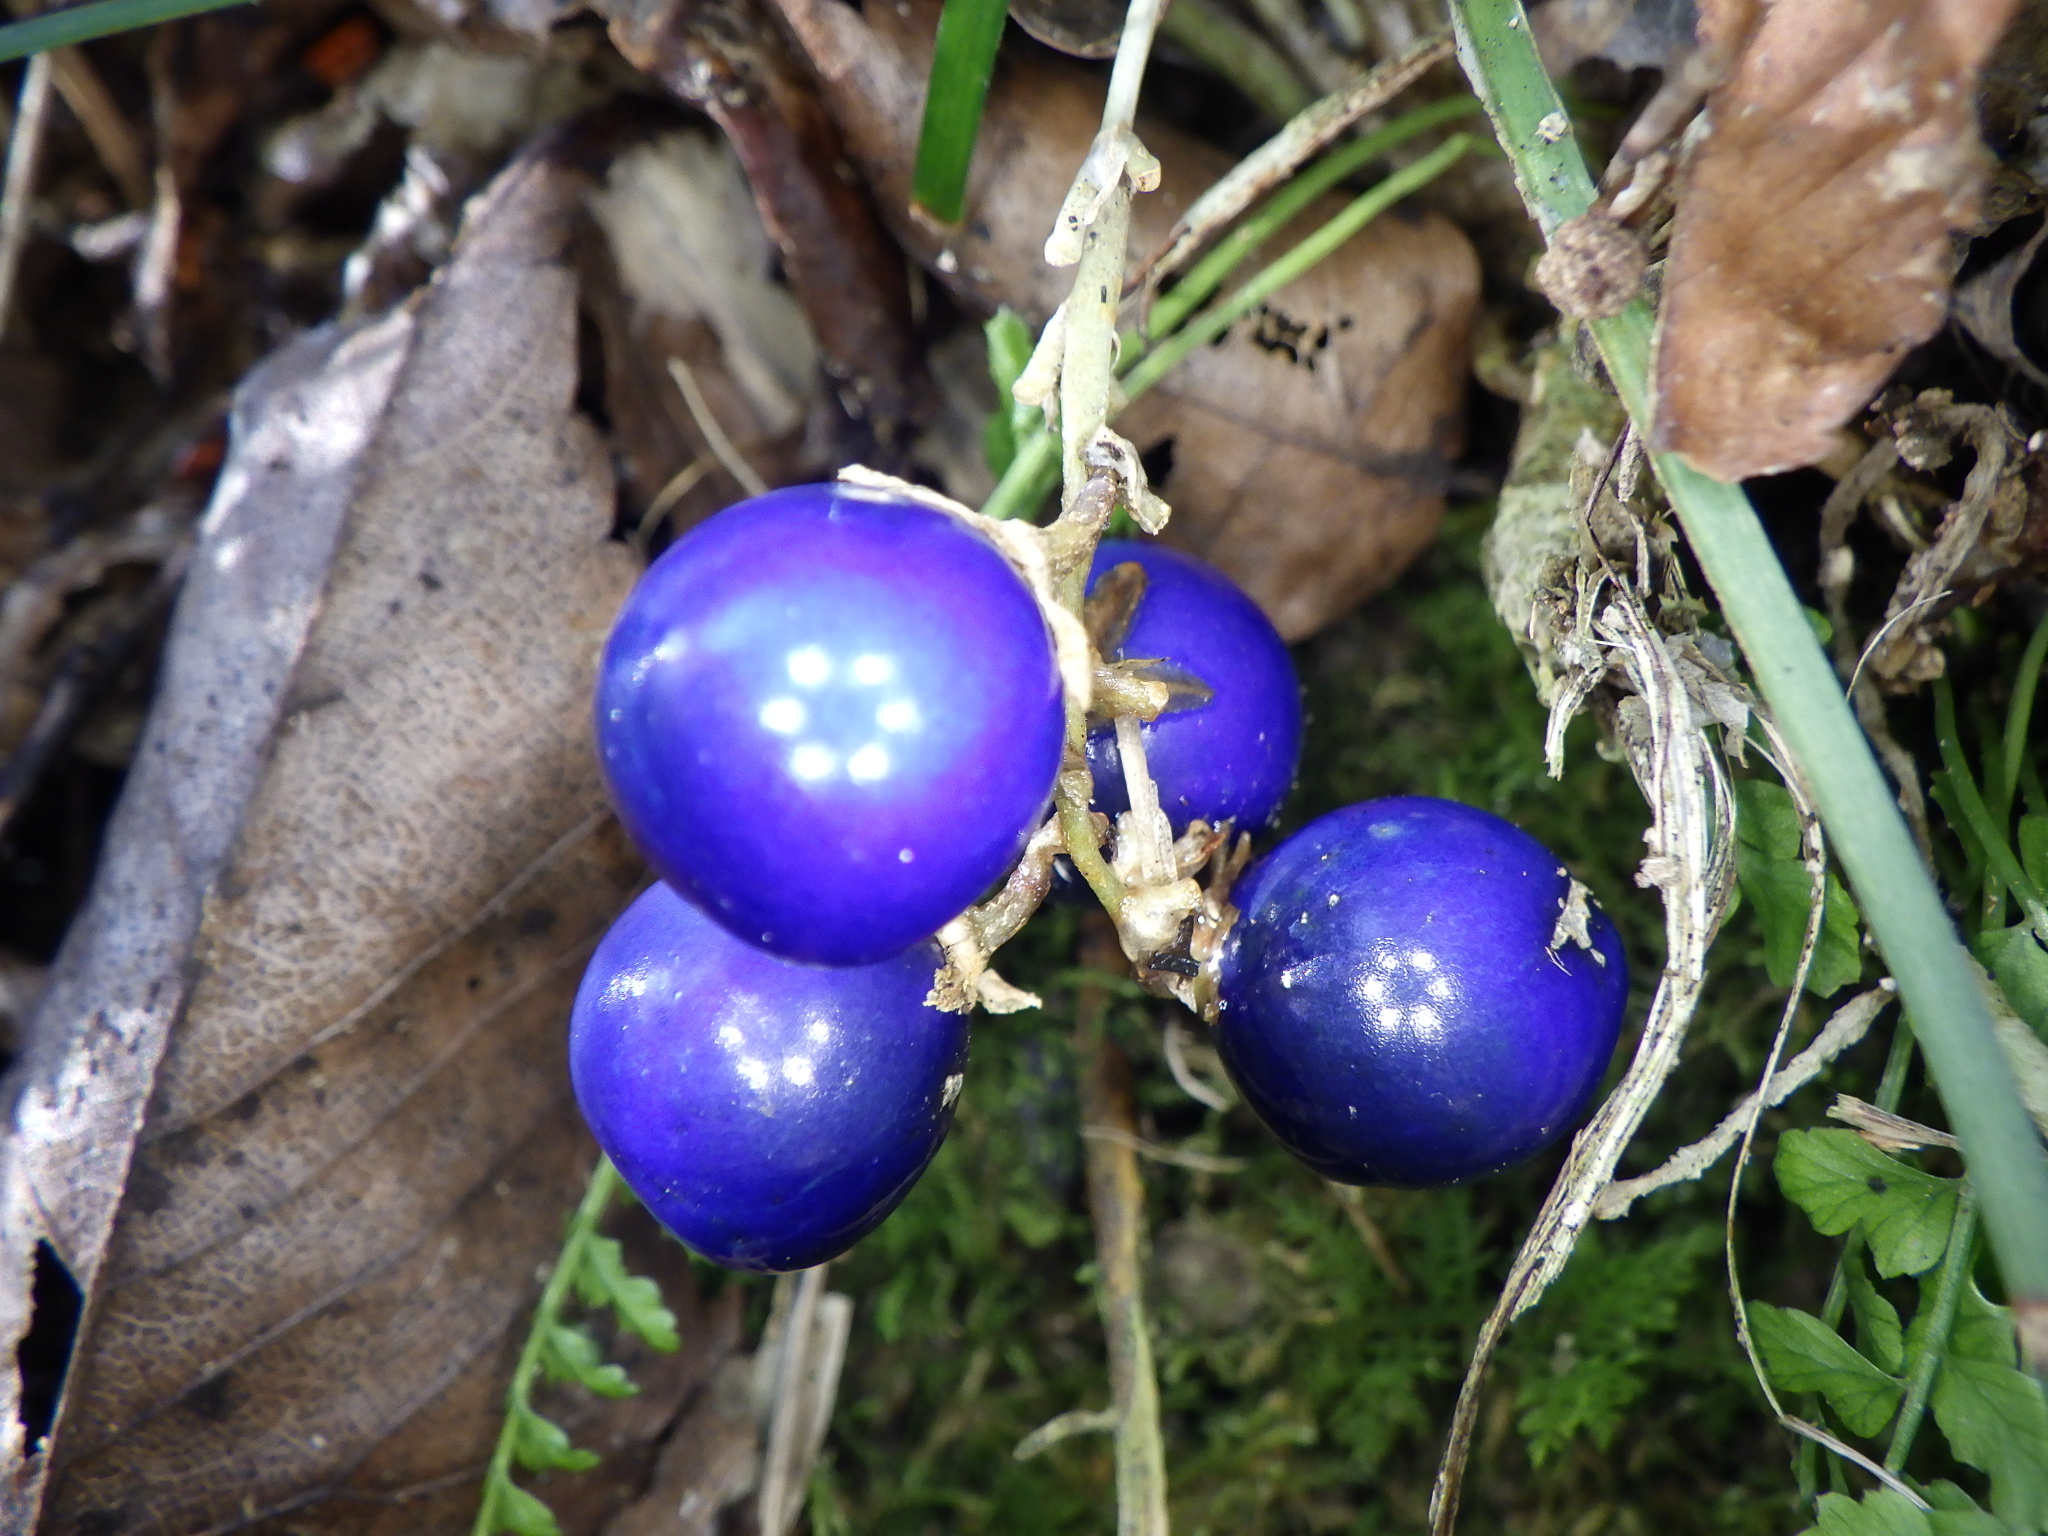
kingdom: Plantae
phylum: Tracheophyta
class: Liliopsida
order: Asparagales
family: Asparagaceae
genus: Ophiopogon
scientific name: Ophiopogon japonicus
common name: Dwarf lilyturf
